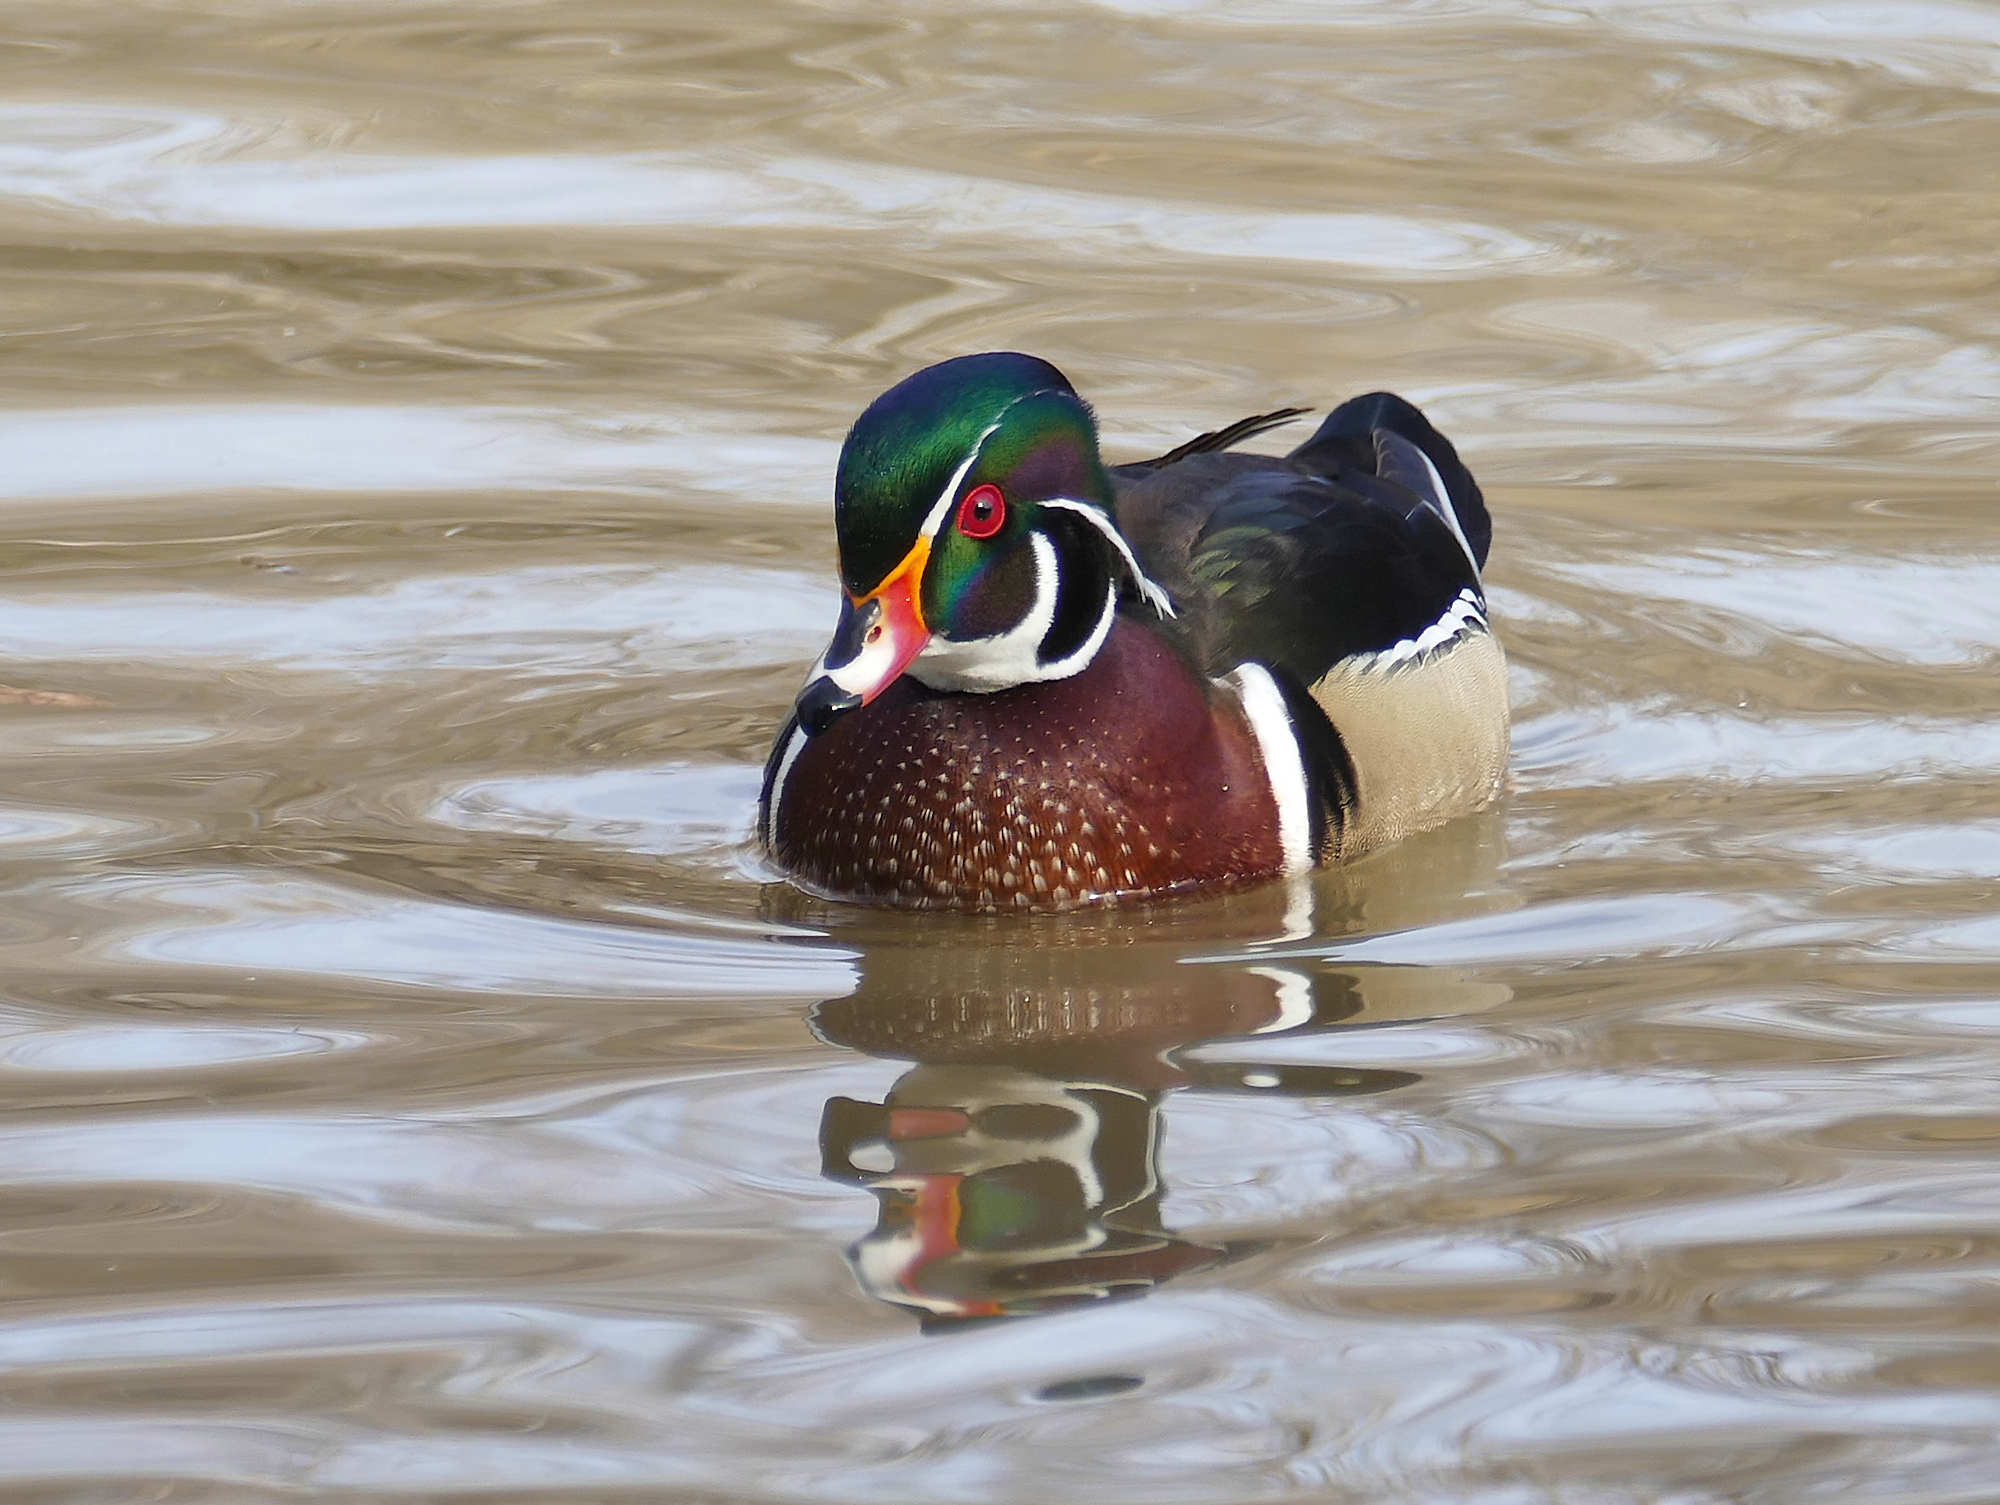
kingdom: Animalia
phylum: Chordata
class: Aves
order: Anseriformes
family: Anatidae
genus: Aix
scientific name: Aix sponsa
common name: Wood duck
